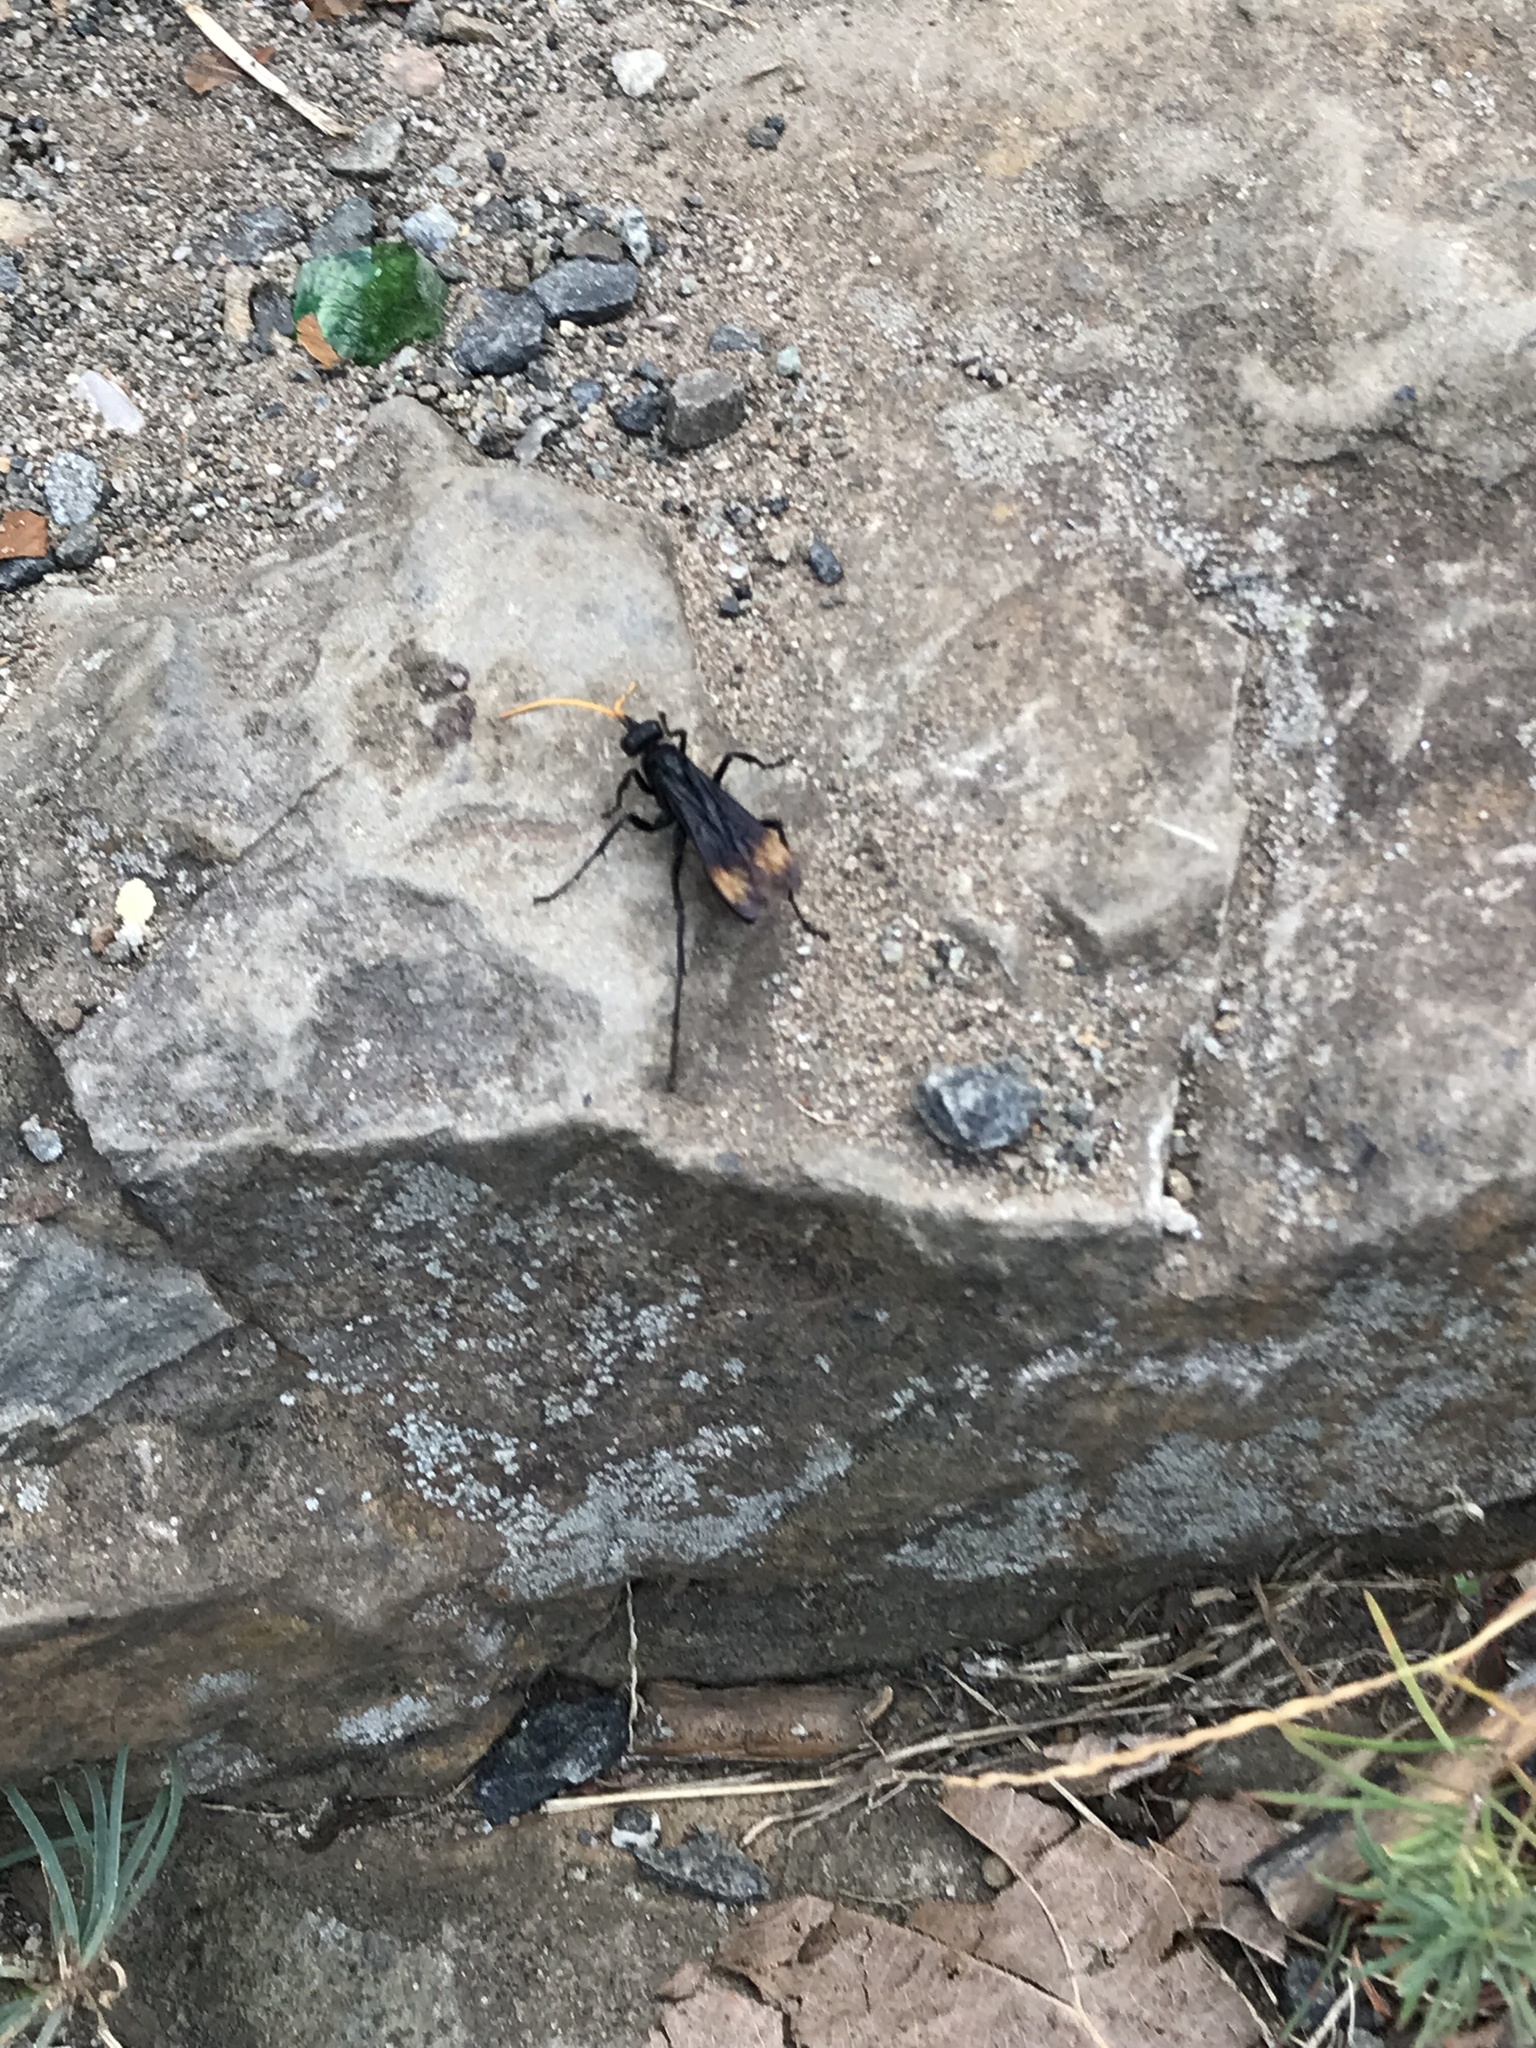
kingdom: Animalia
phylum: Arthropoda
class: Insecta
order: Hymenoptera
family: Pompilidae
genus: Entypus
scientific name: Entypus unifasciatus
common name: Eastern tawny-horned spider wasp
